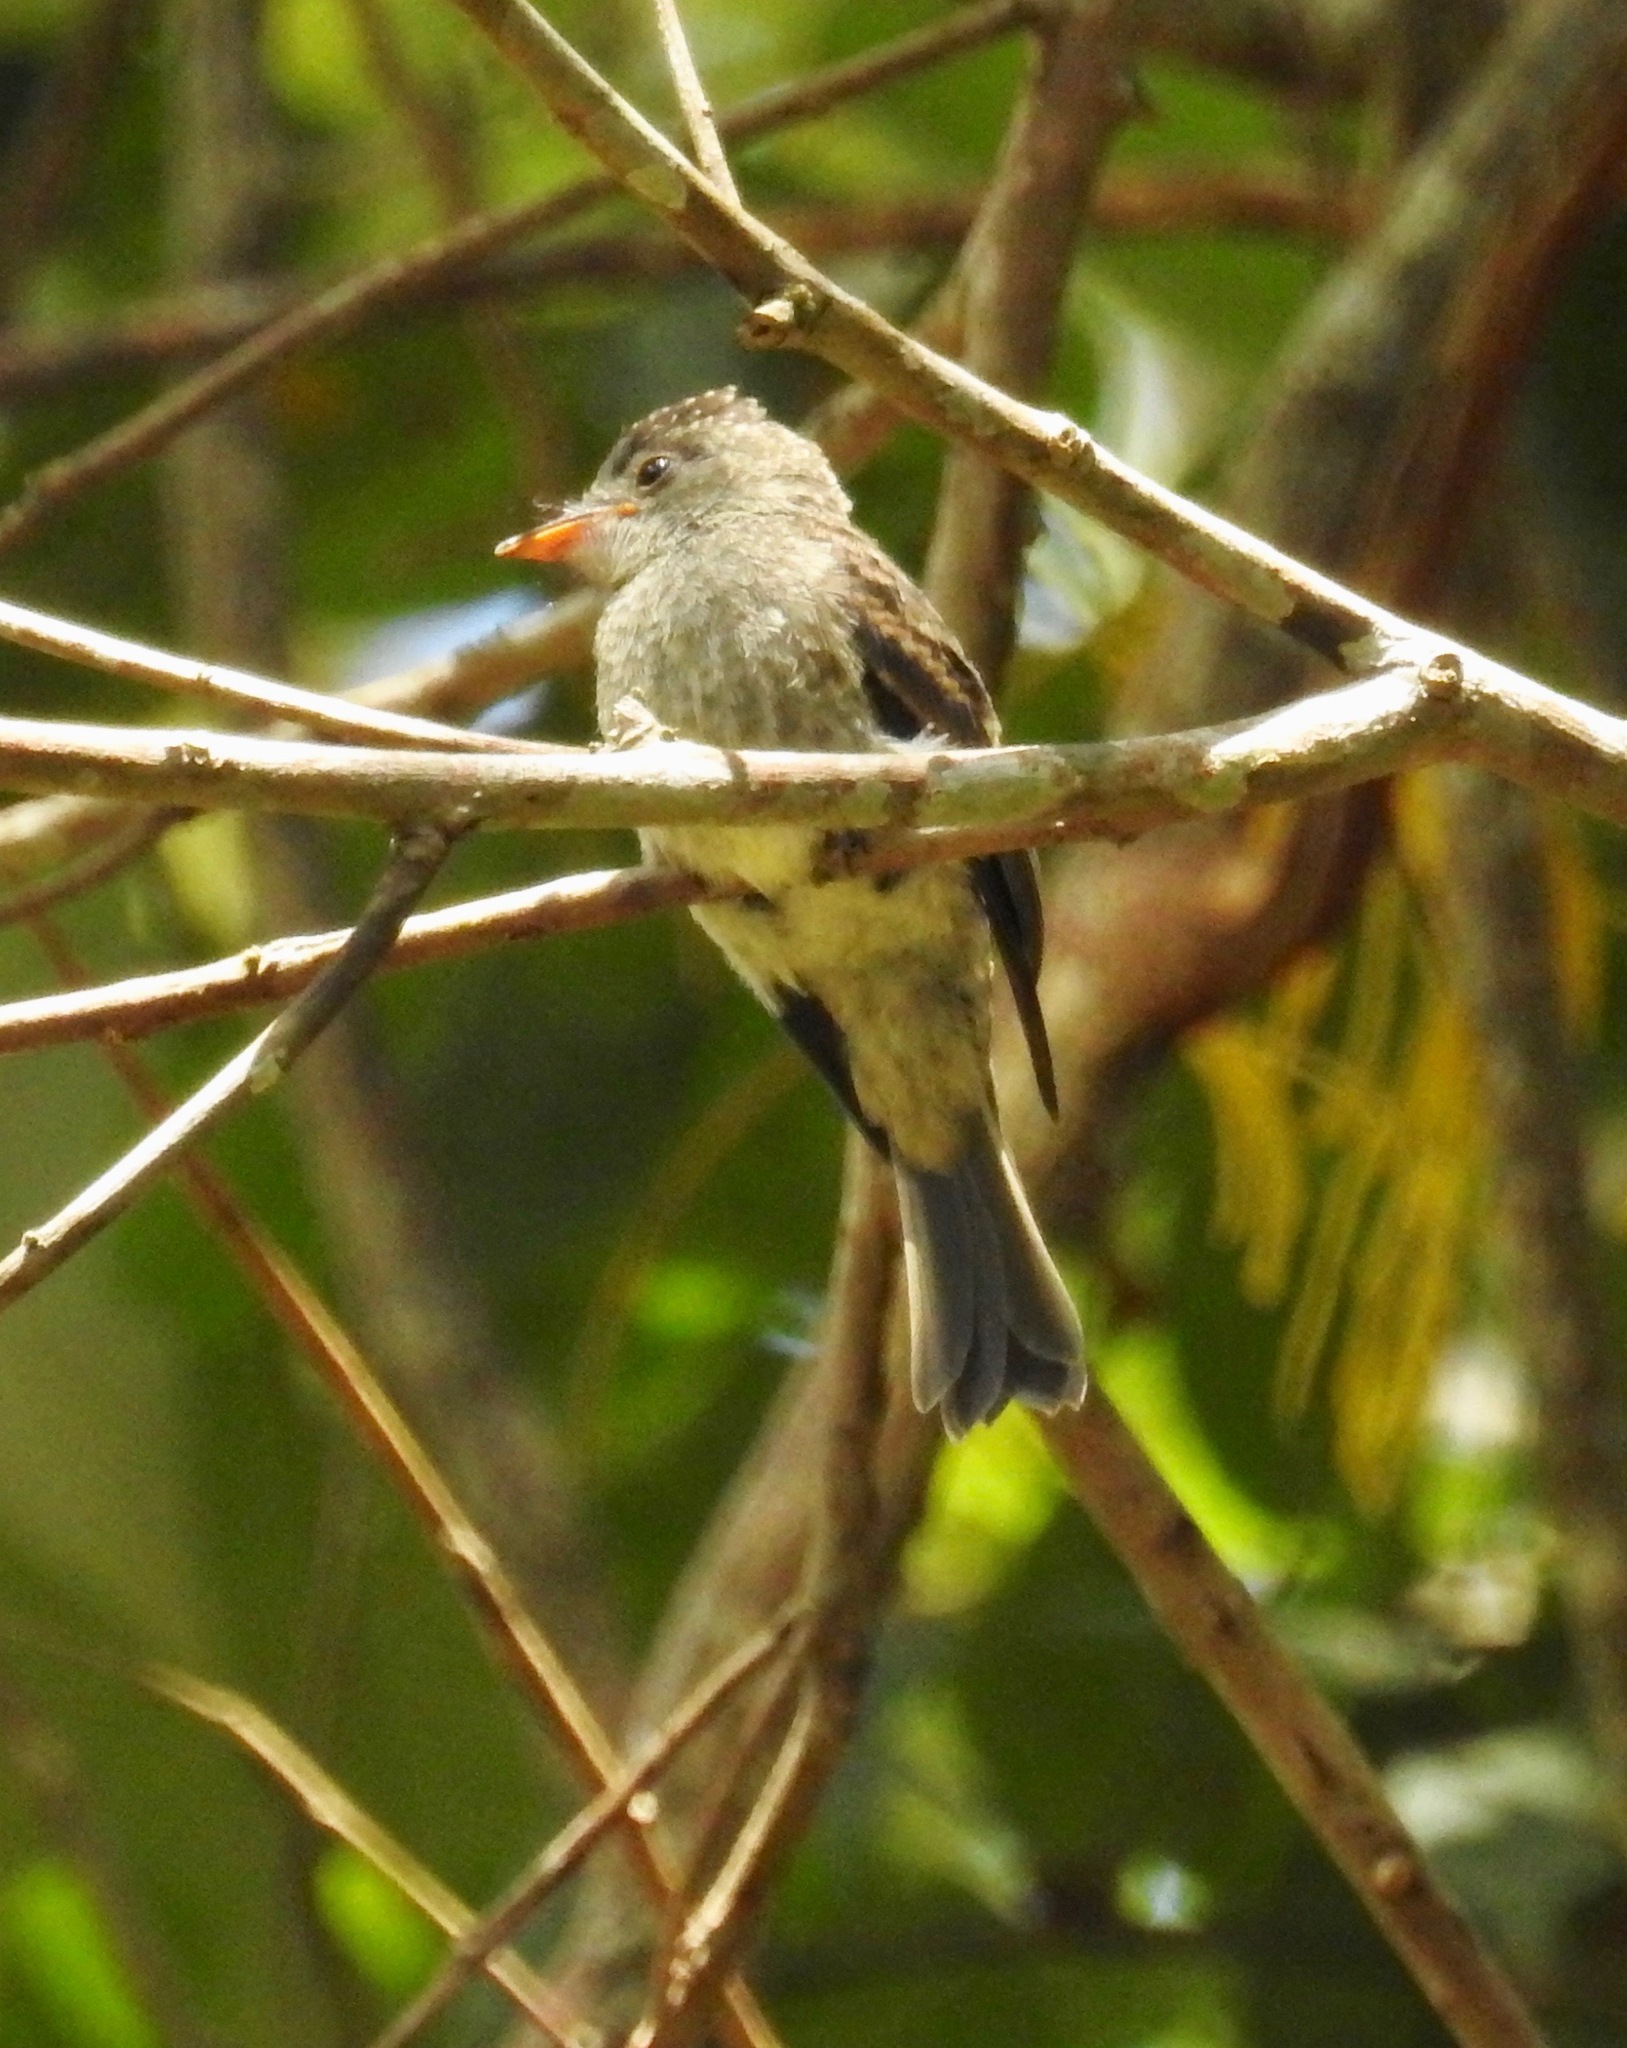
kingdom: Animalia
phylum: Chordata
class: Aves
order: Passeriformes
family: Tyrannidae
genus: Contopus
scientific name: Contopus cinereus
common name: Tropical pewee
